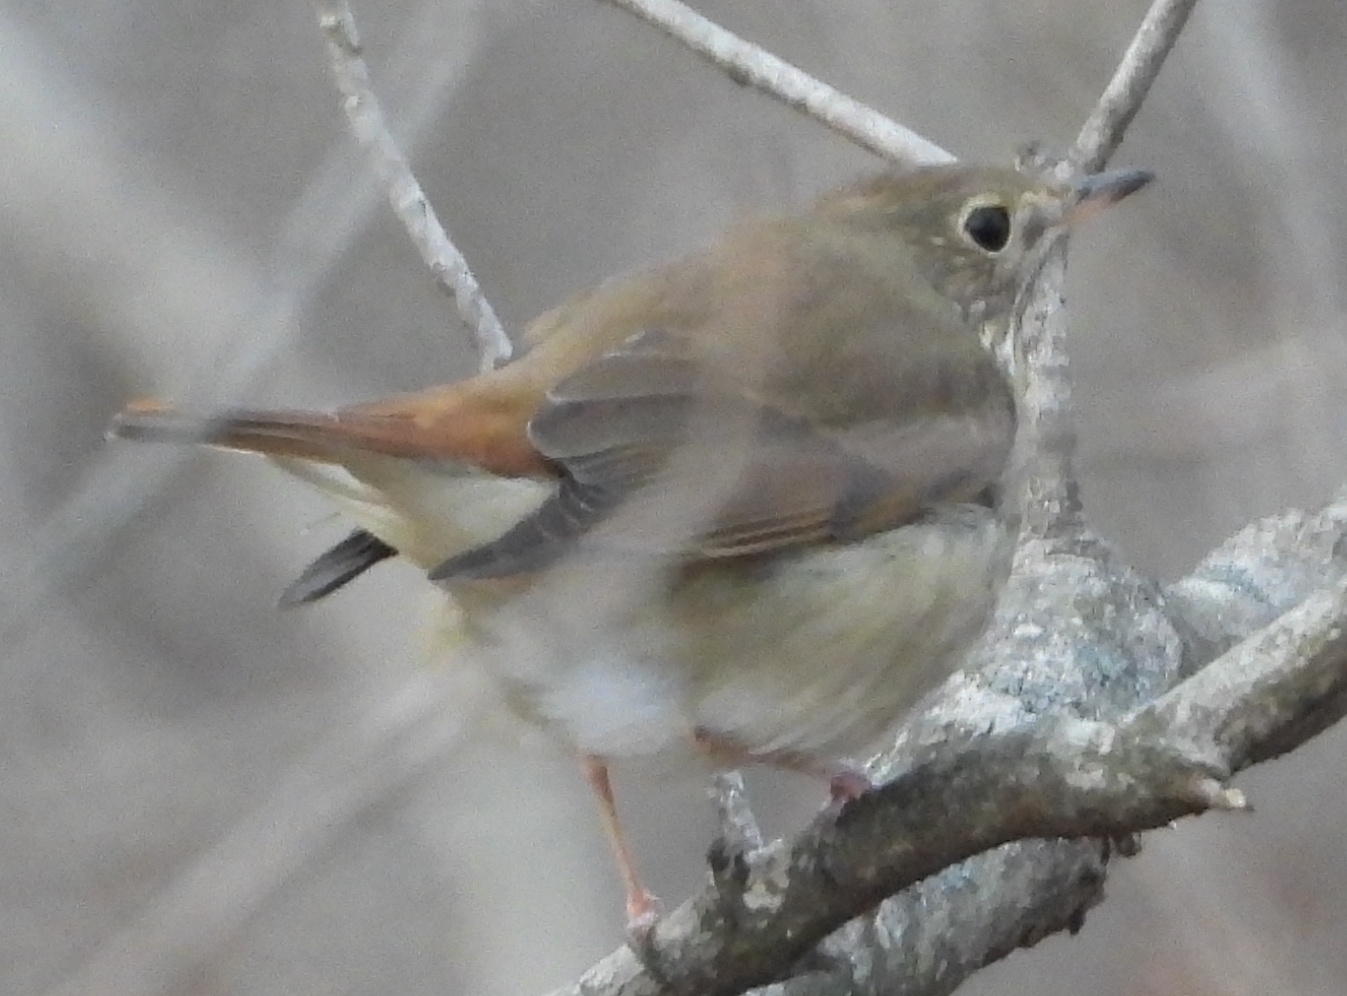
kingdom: Animalia
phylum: Chordata
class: Aves
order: Passeriformes
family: Turdidae
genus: Catharus
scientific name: Catharus guttatus
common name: Hermit thrush
